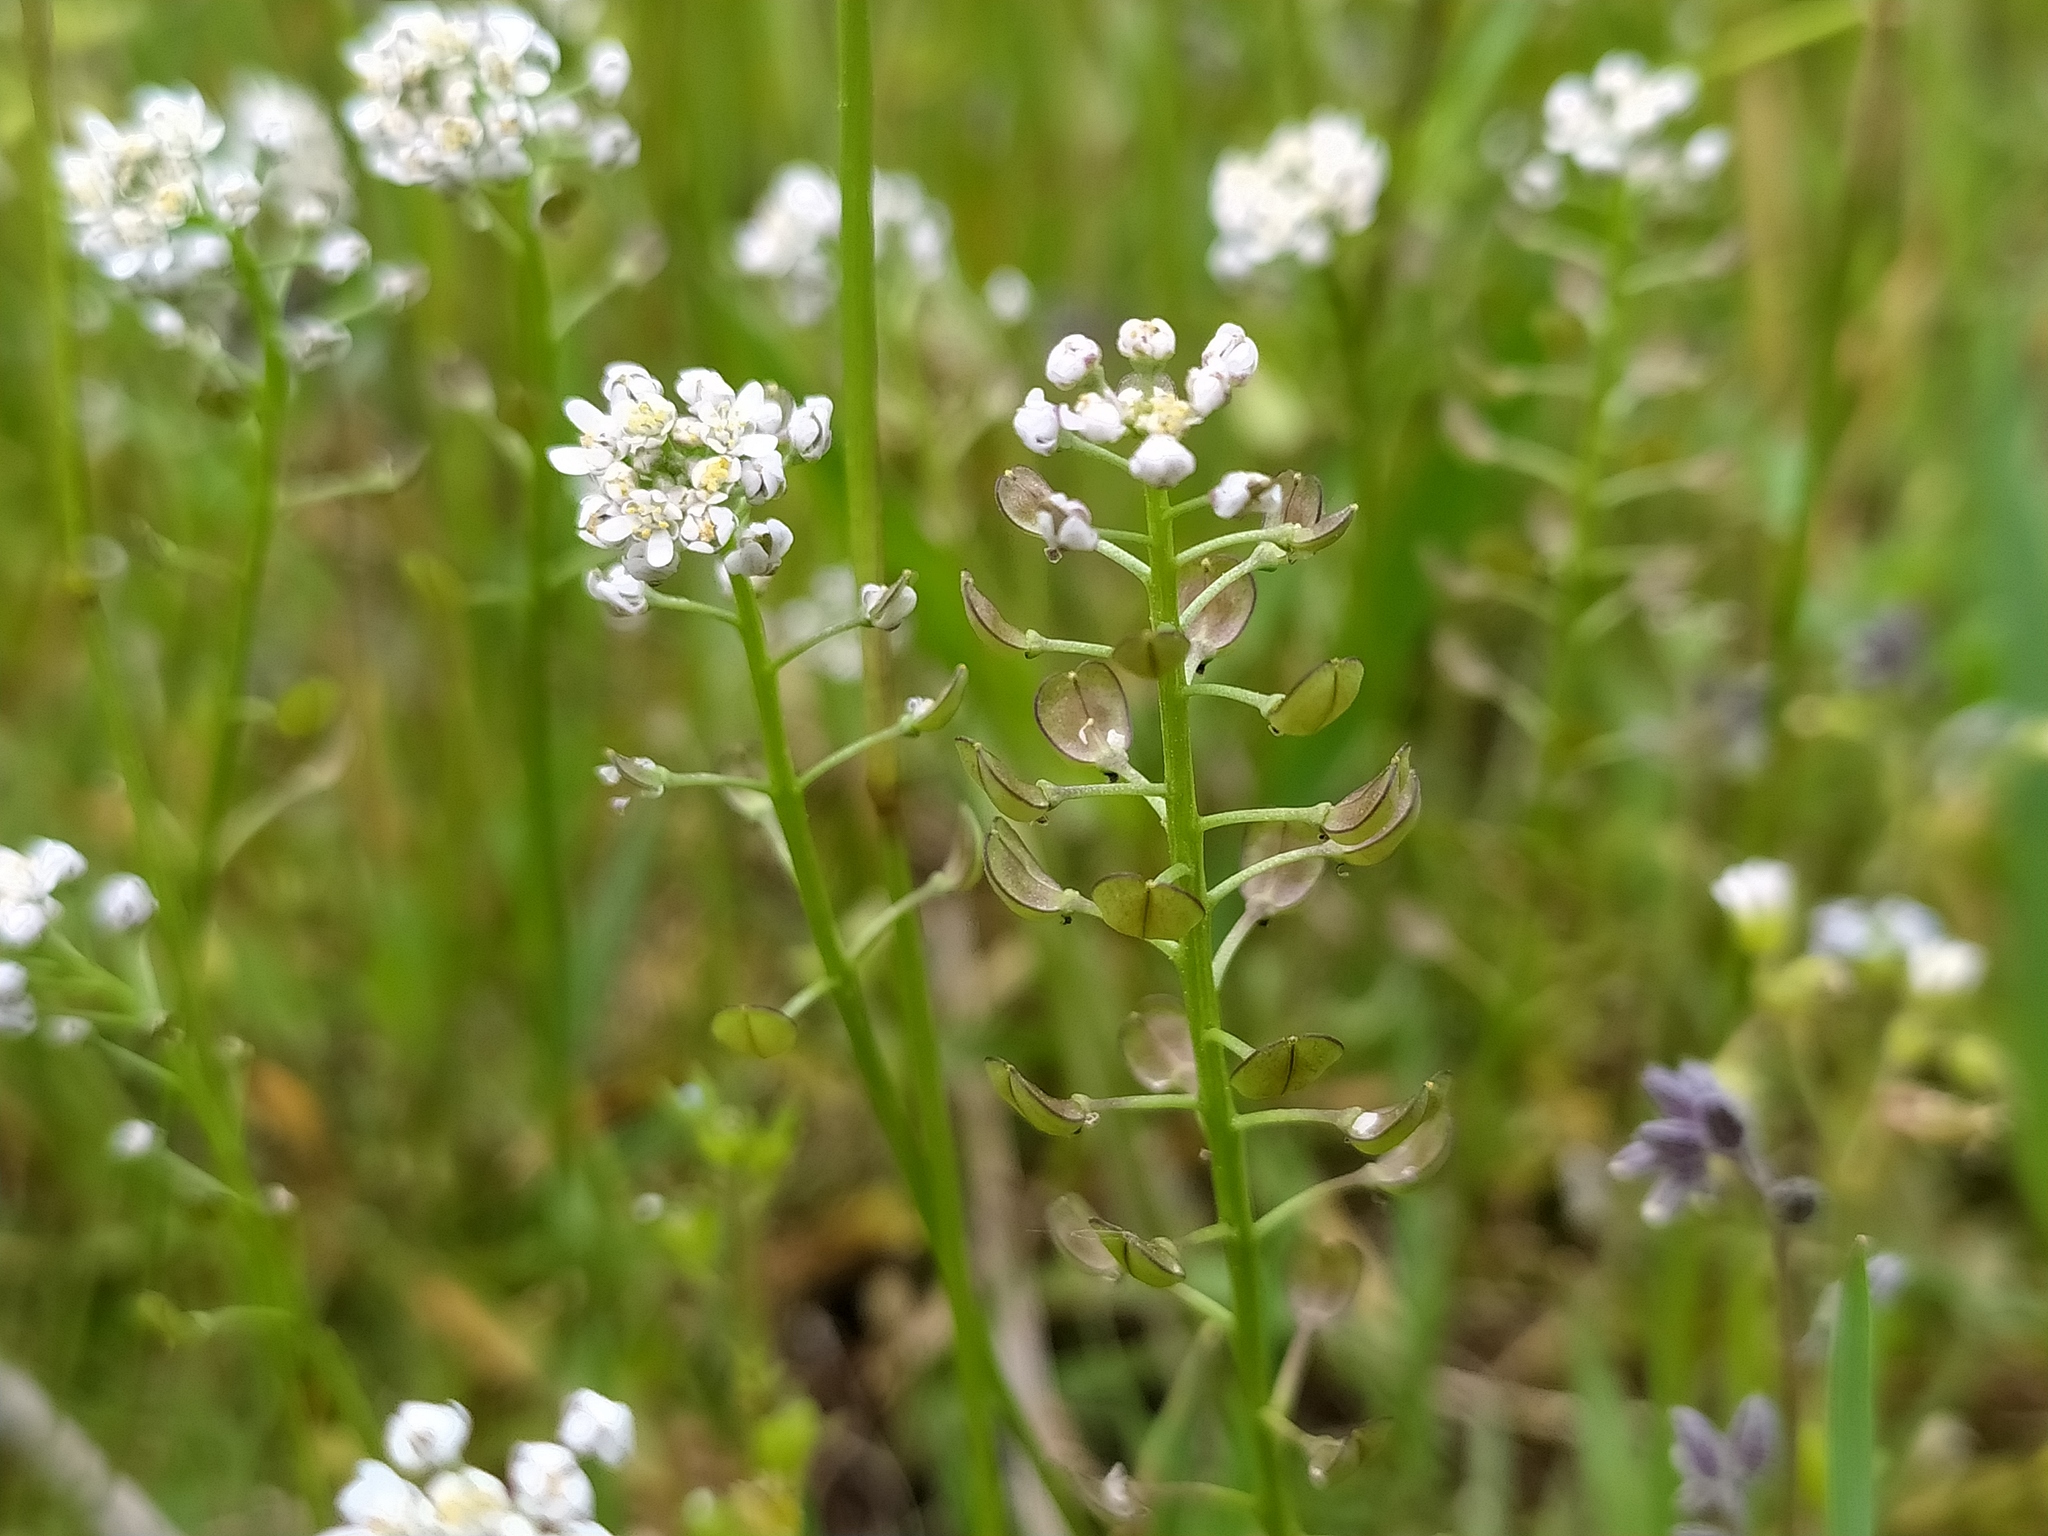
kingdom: Plantae
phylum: Tracheophyta
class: Magnoliopsida
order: Brassicales
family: Brassicaceae
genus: Teesdalia
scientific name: Teesdalia nudicaulis
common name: Shepherd's cress
